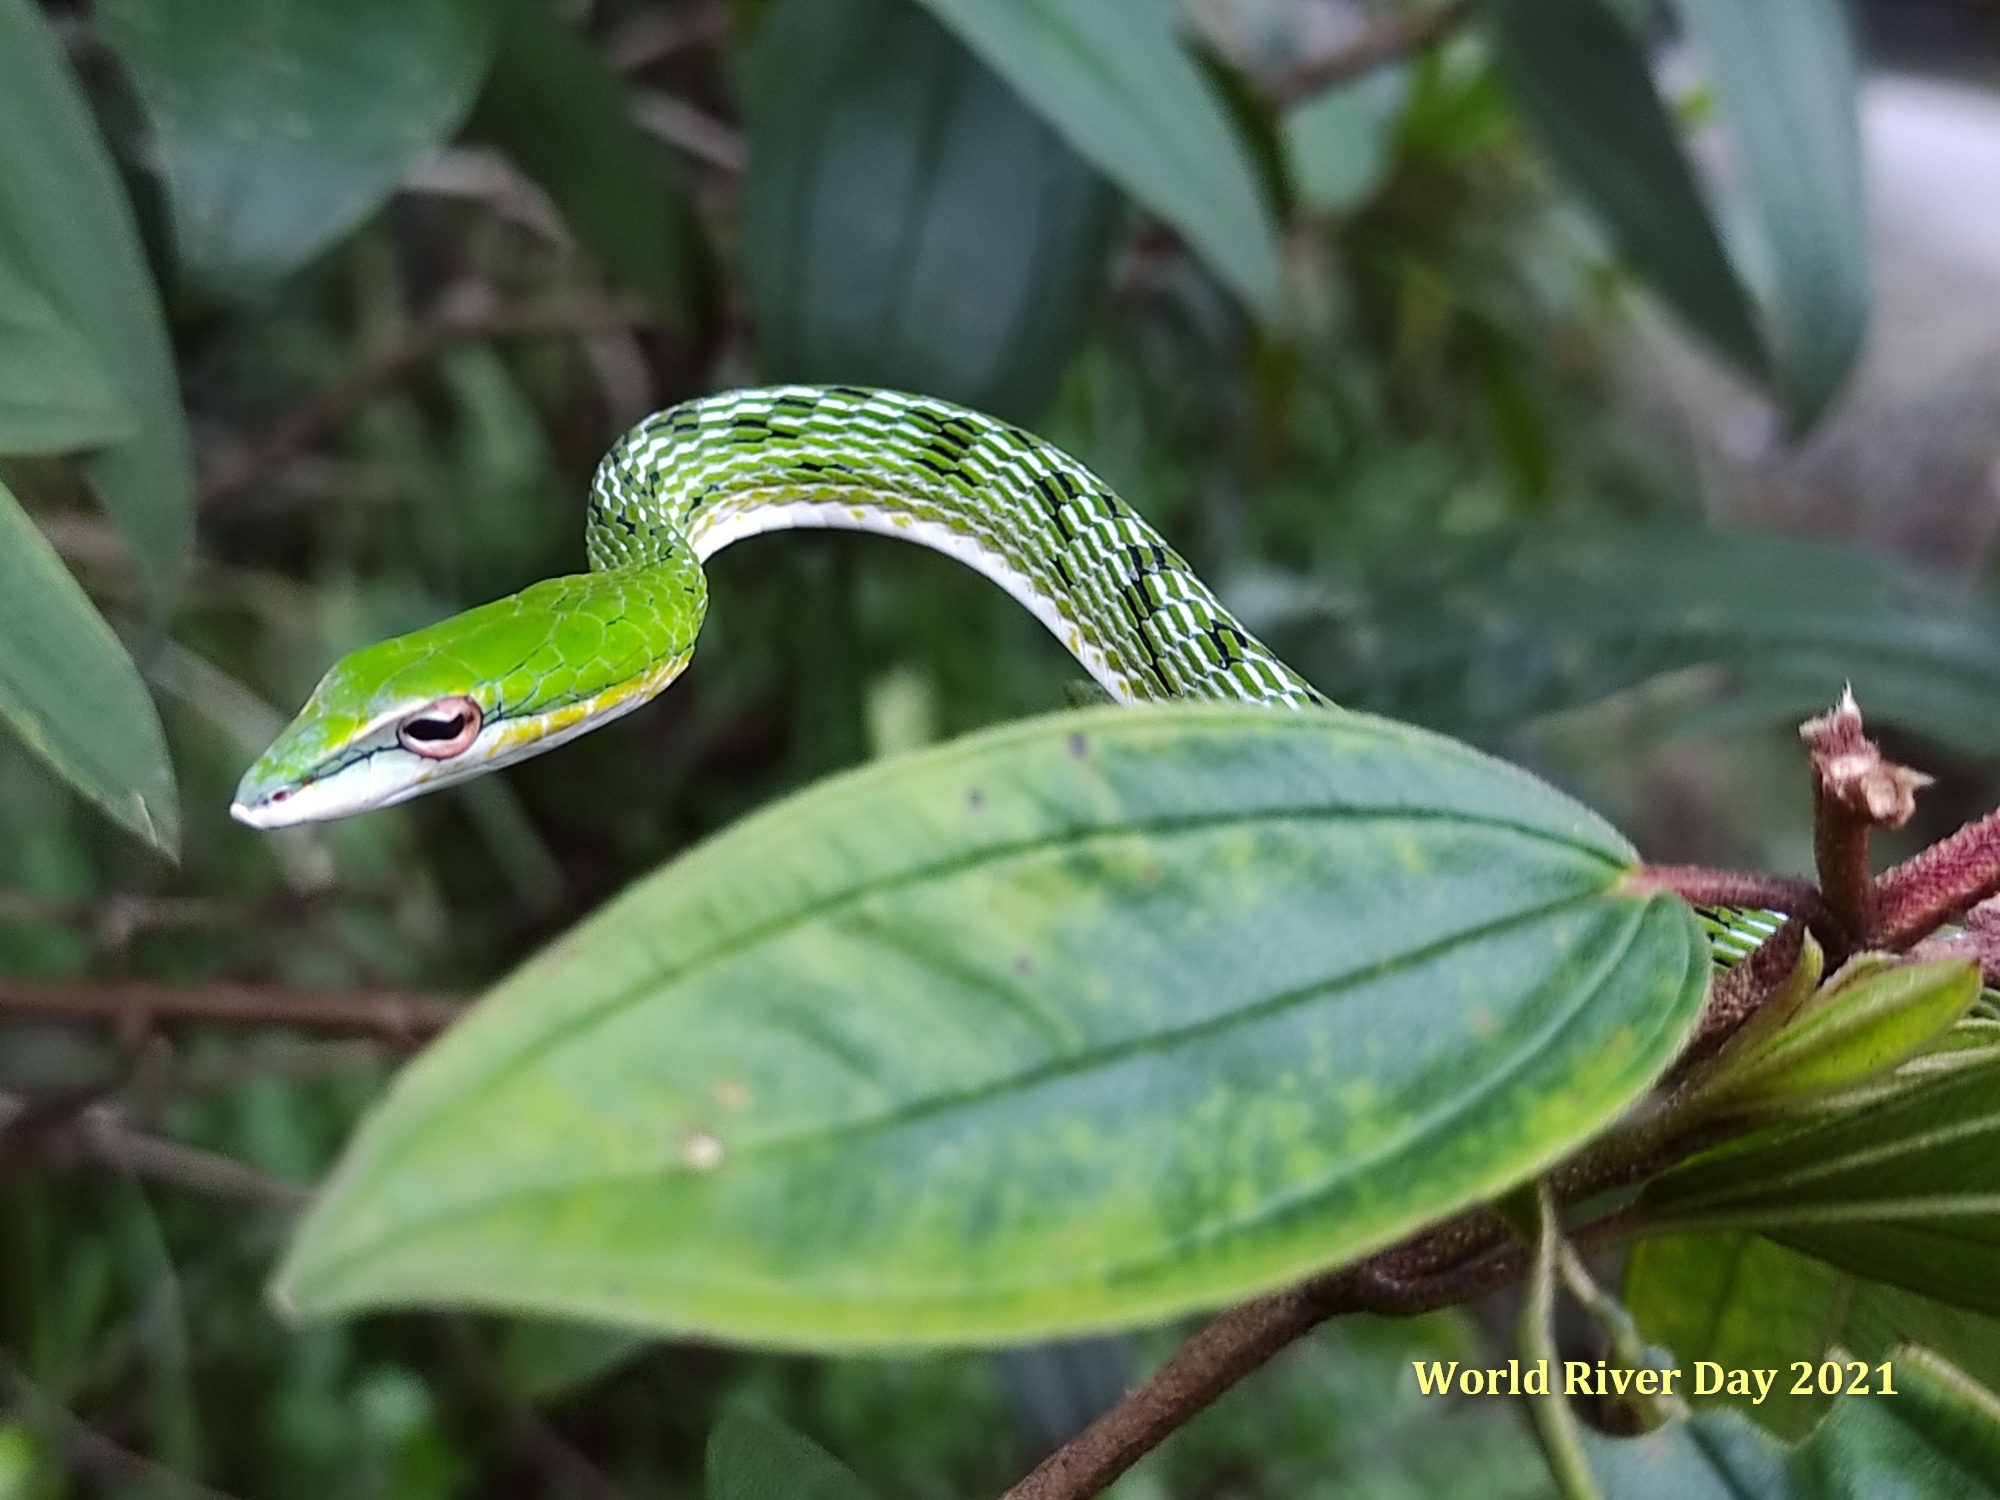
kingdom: Animalia
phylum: Chordata
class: Squamata
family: Colubridae
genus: Ahaetulla
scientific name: Ahaetulla mycterizans
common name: Malayan whip snake
